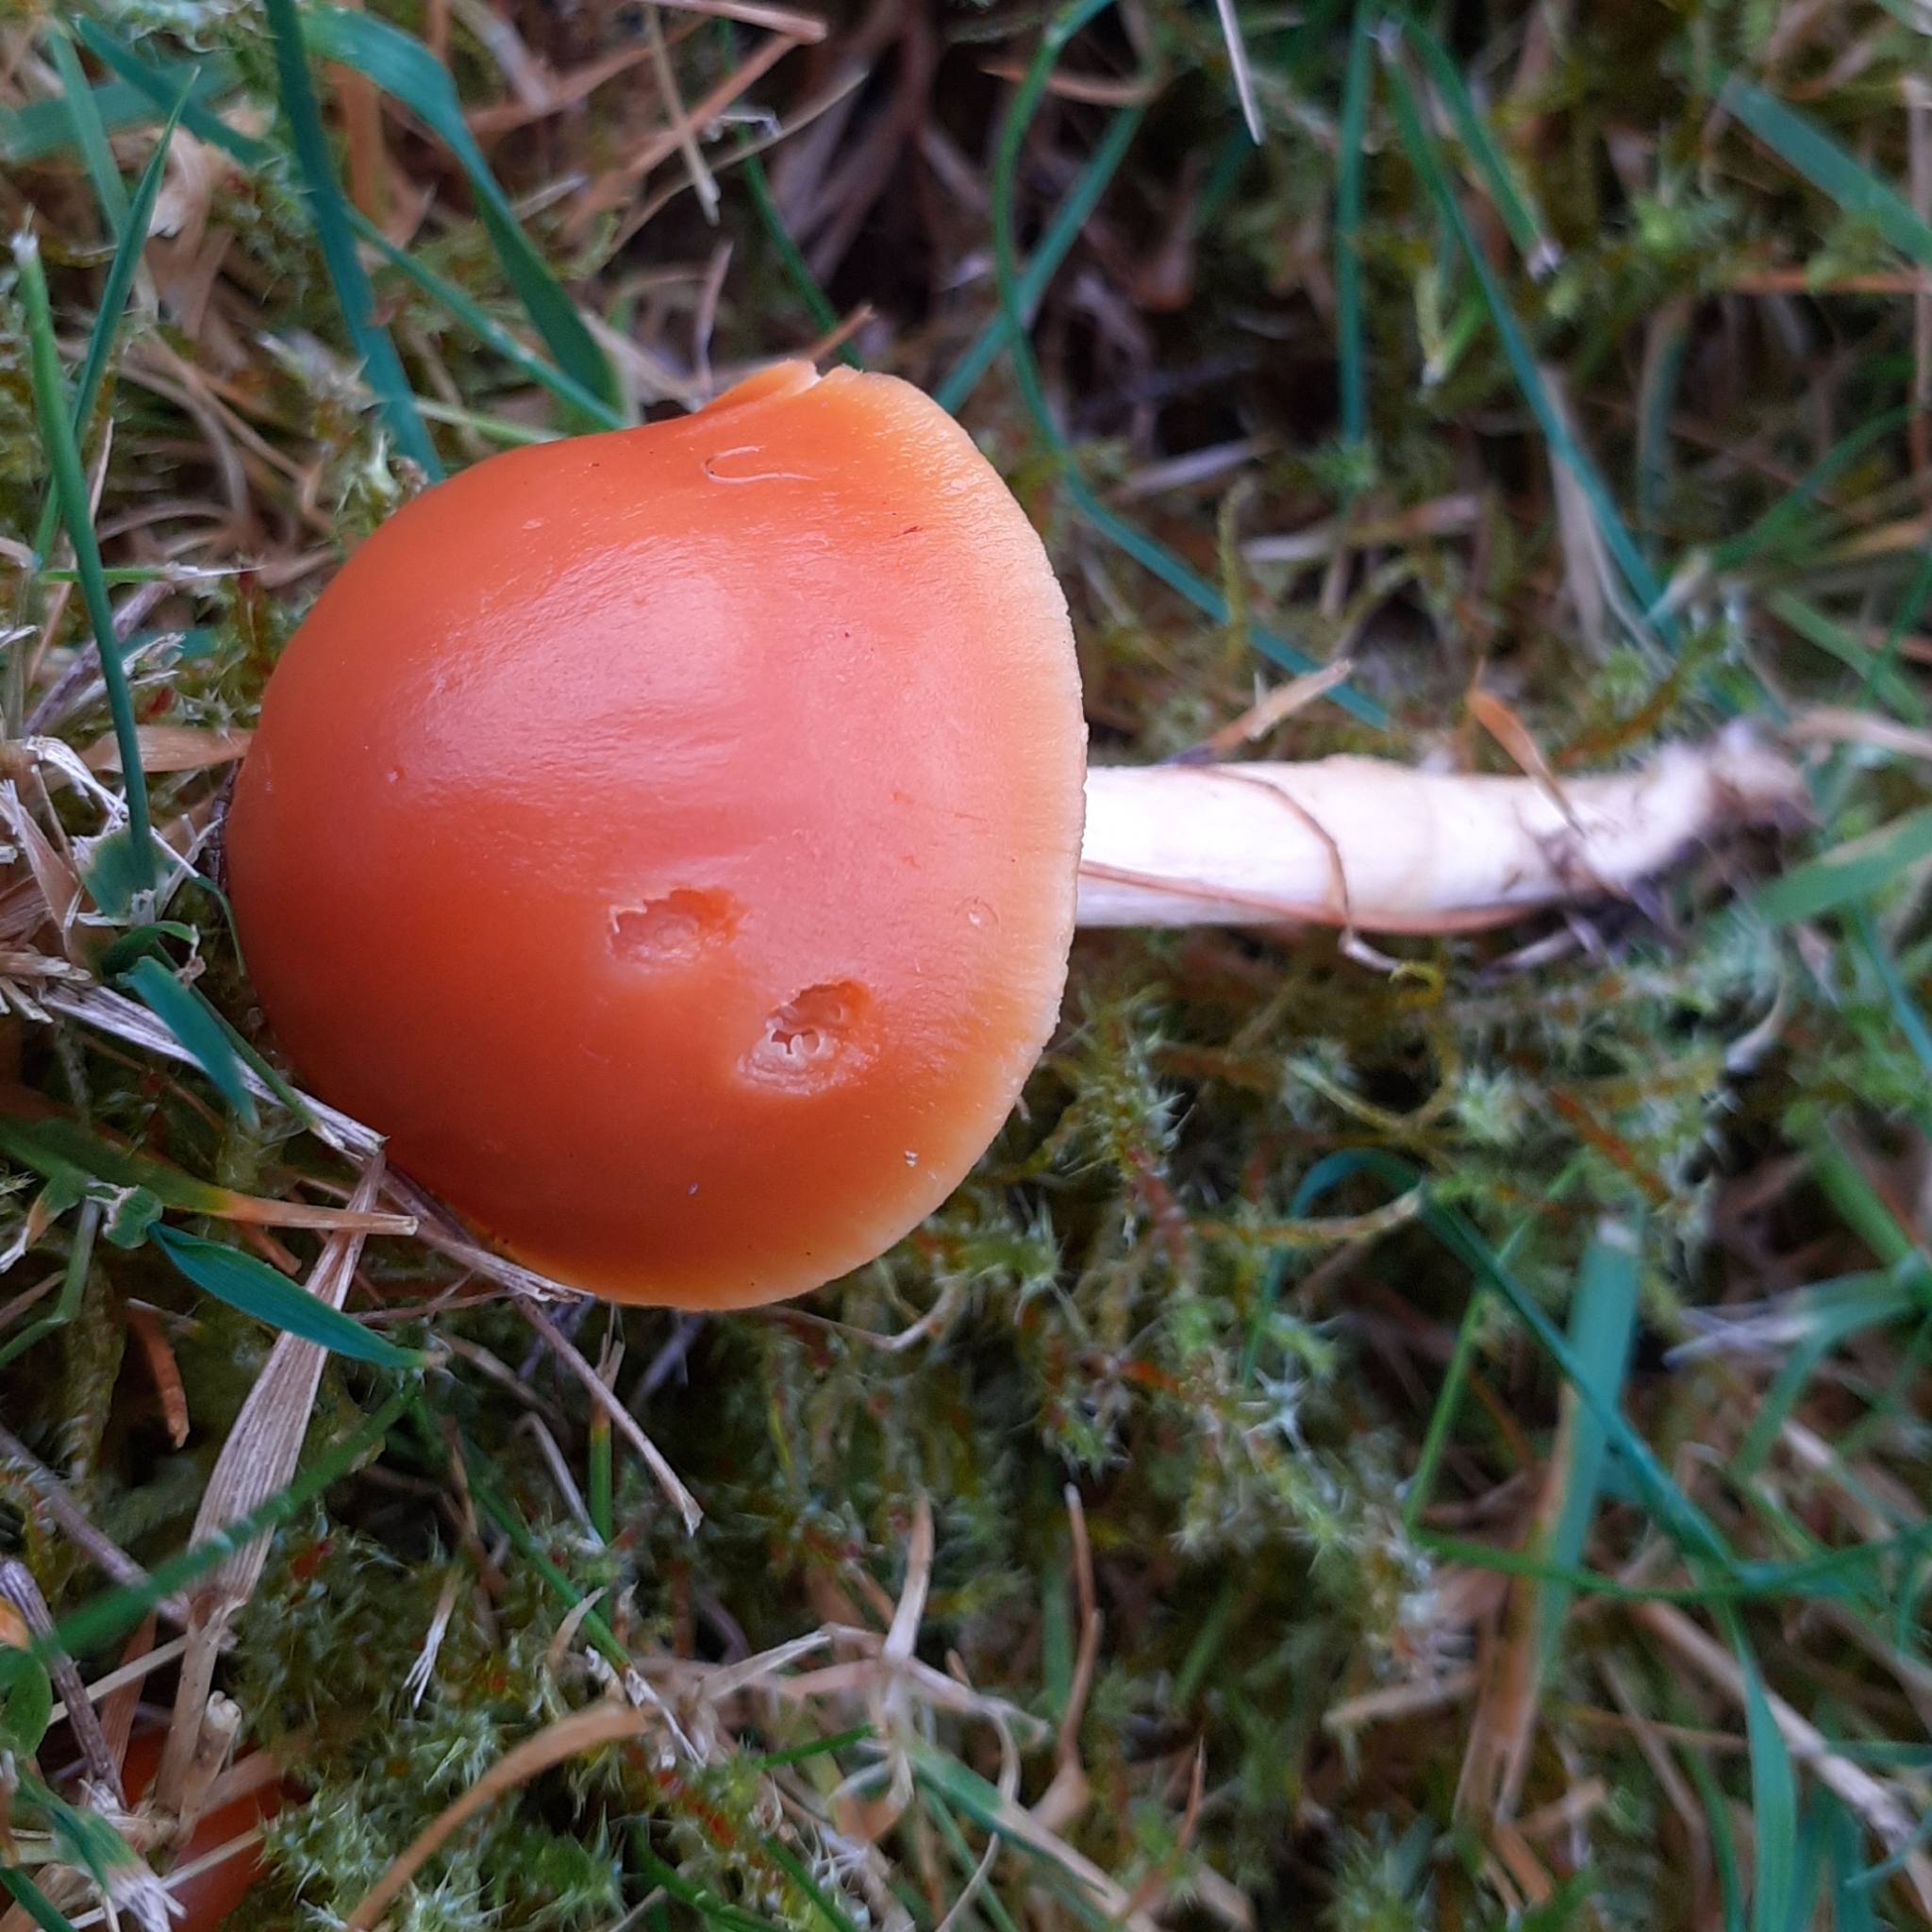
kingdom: Fungi
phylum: Basidiomycota
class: Agaricomycetes
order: Agaricales
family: Hygrophoraceae
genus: Cuphophyllus
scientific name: Cuphophyllus pratensis
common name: Meadow waxcap
